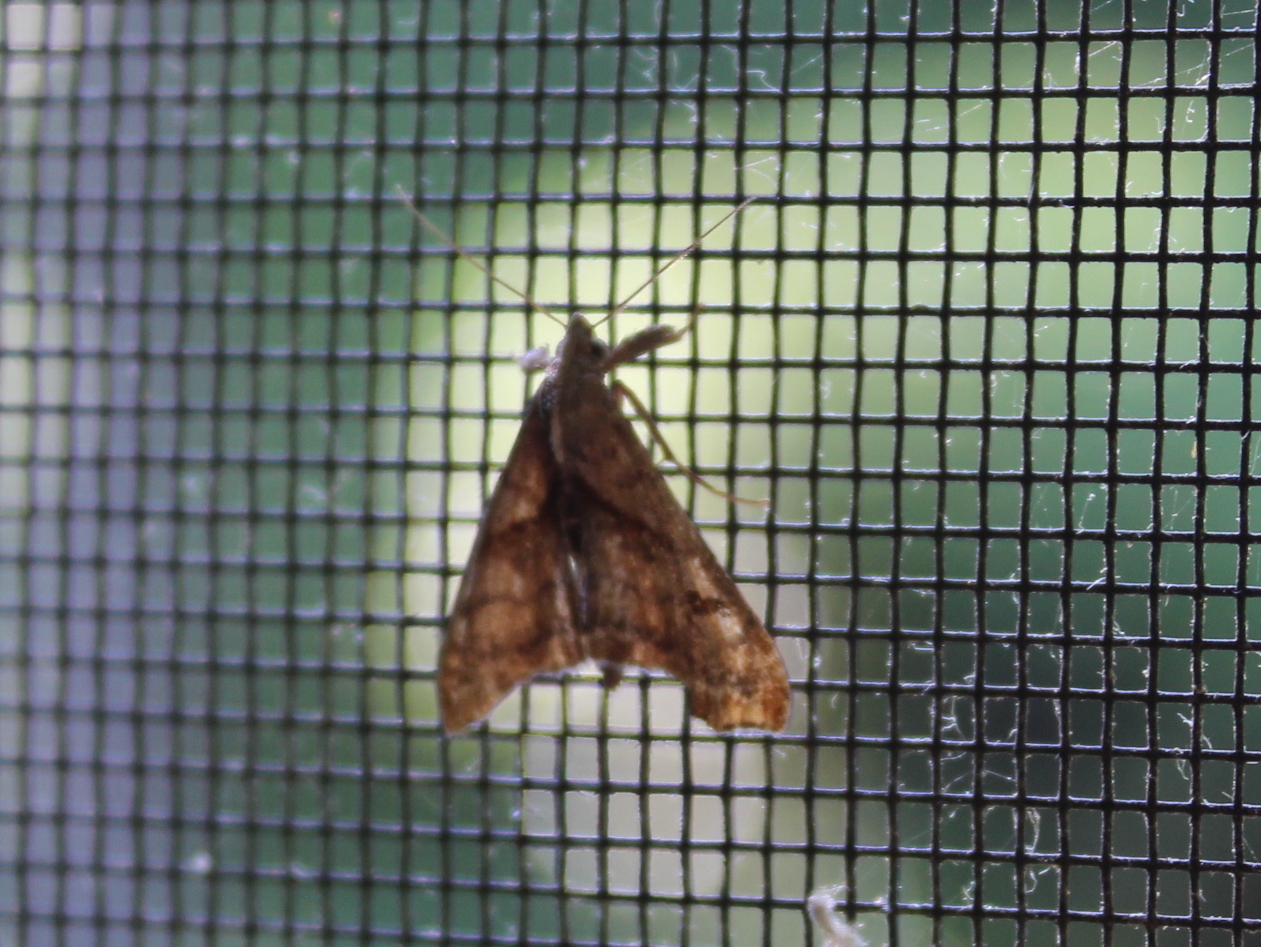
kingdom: Animalia
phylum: Arthropoda
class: Insecta
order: Lepidoptera
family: Erebidae
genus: Palthis
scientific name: Palthis angulalis
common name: Dark-spotted palthis moth
